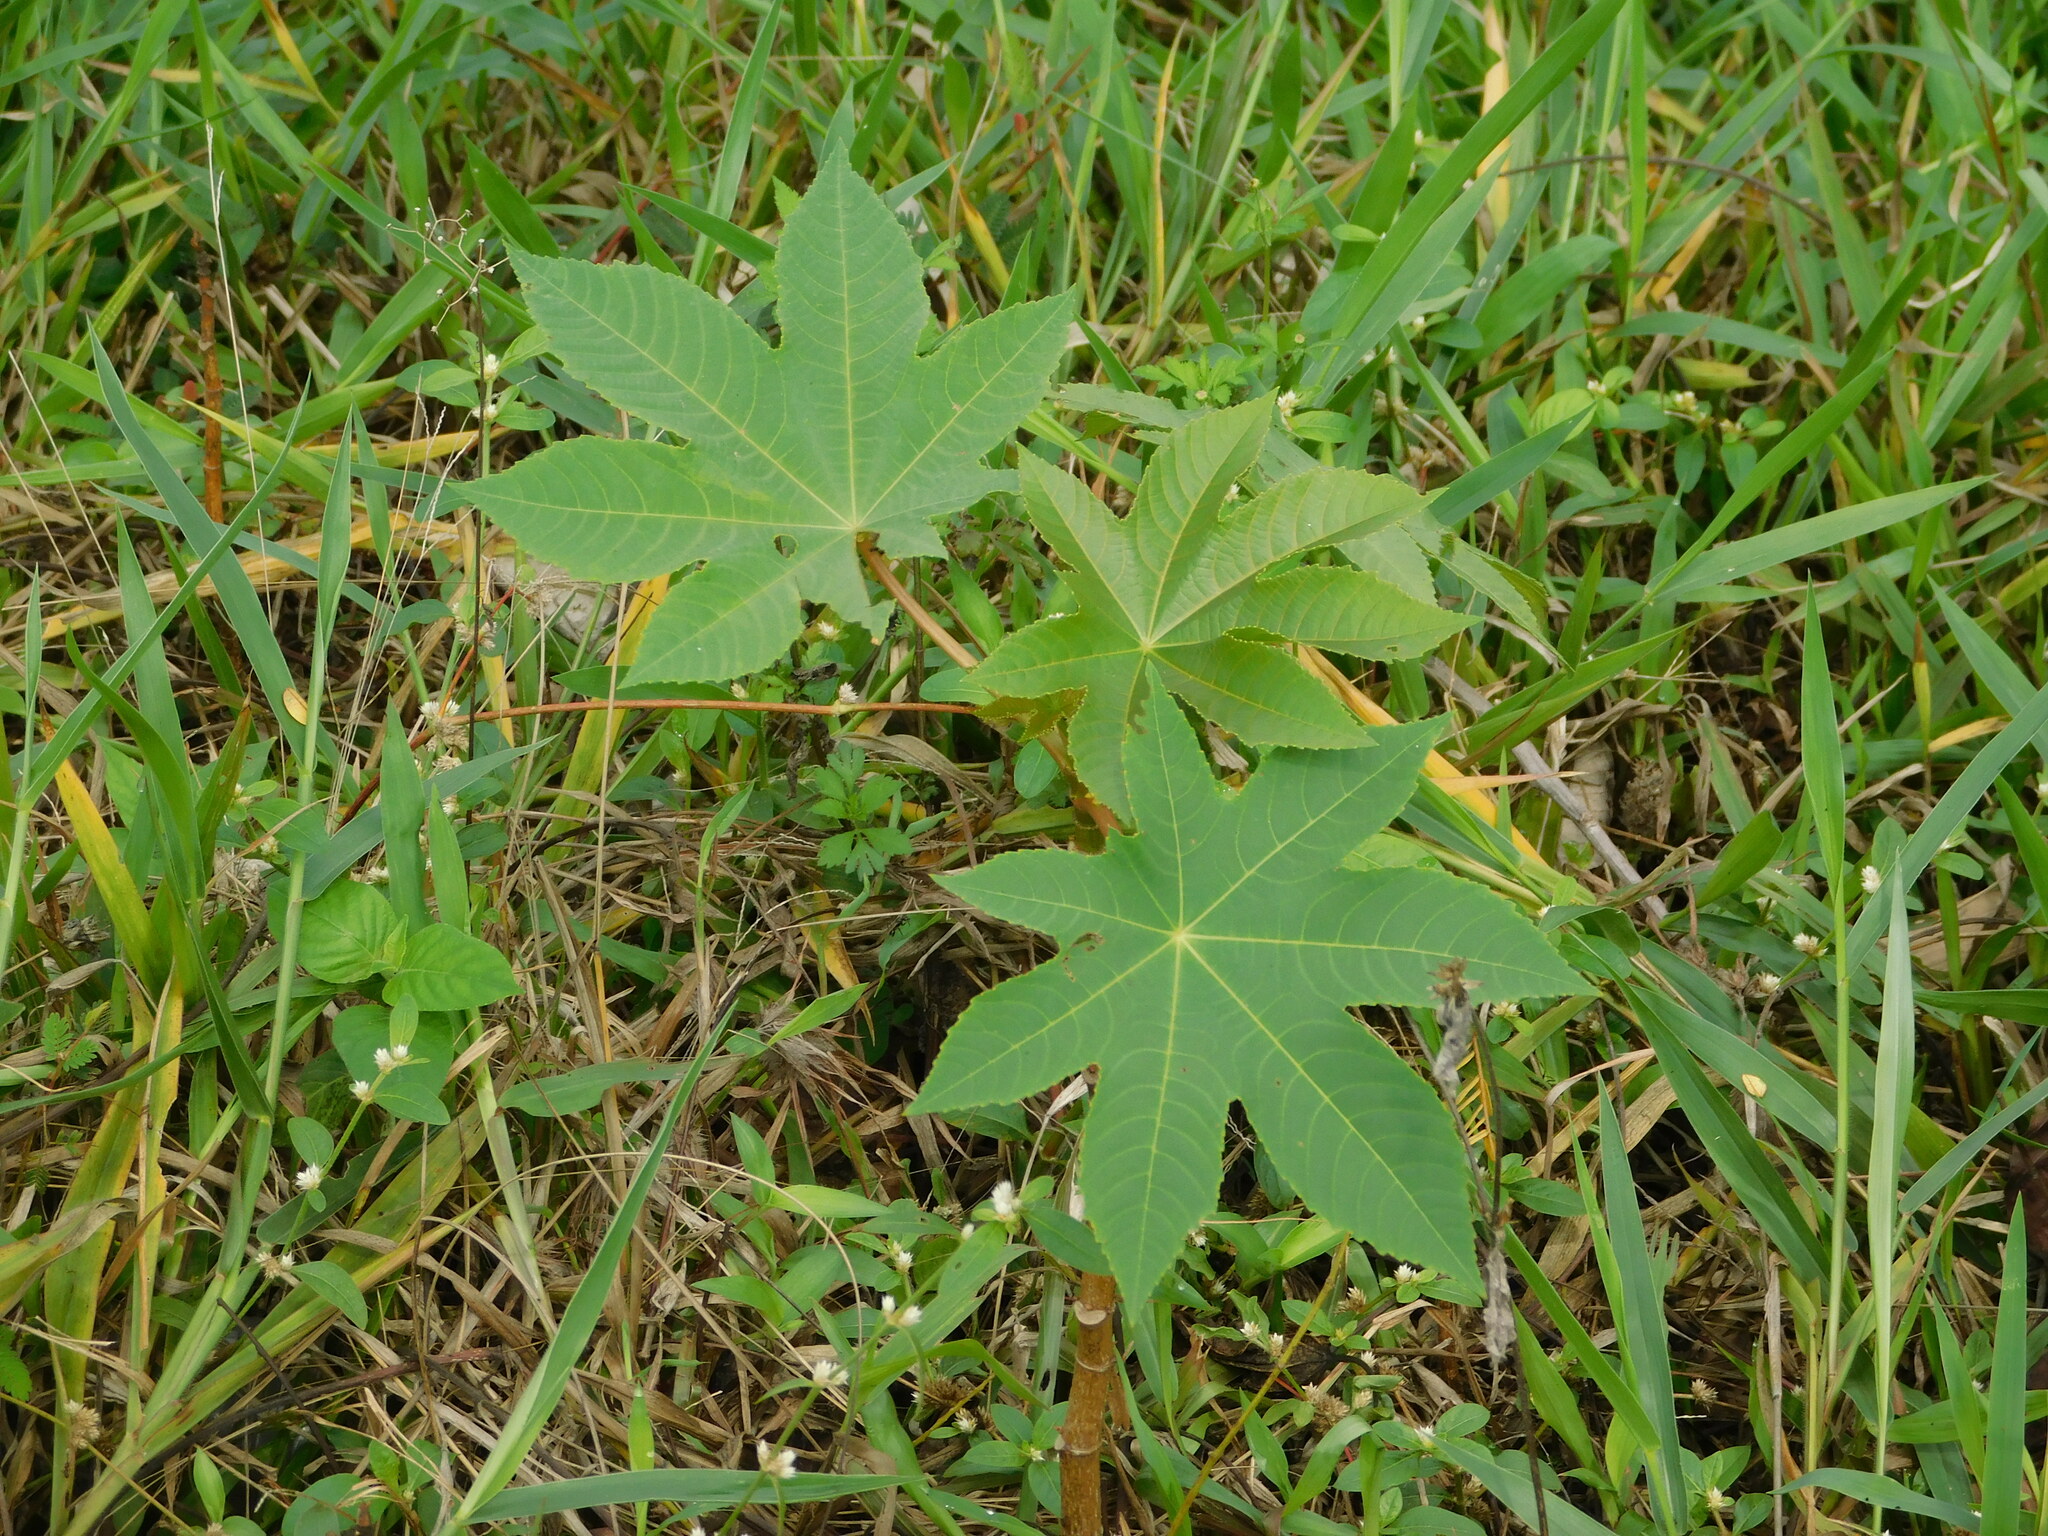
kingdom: Plantae
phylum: Tracheophyta
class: Magnoliopsida
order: Malpighiales
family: Euphorbiaceae
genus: Ricinus
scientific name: Ricinus communis
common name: Castor-oil-plant
